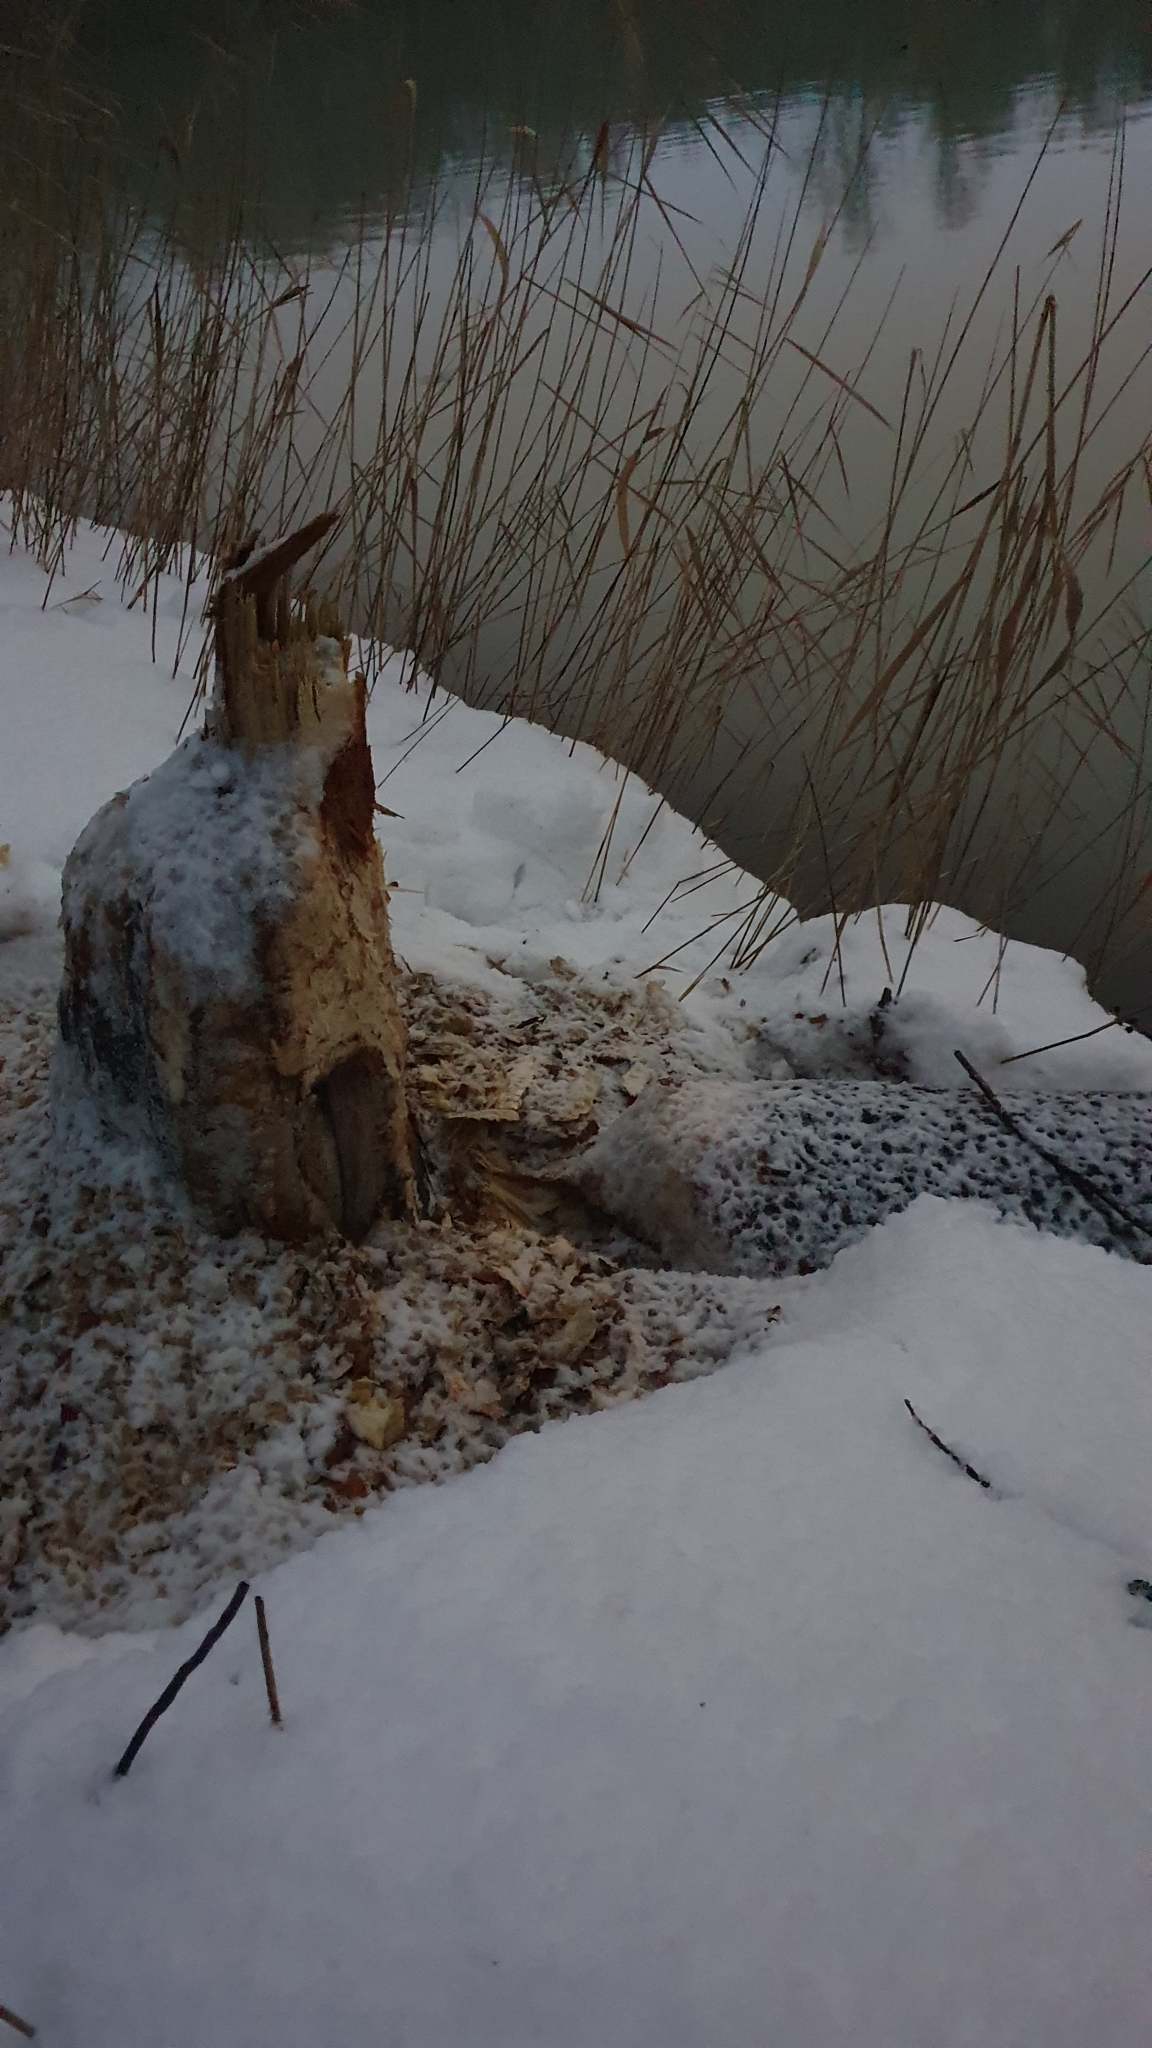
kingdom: Animalia
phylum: Chordata
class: Mammalia
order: Rodentia
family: Castoridae
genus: Castor
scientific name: Castor fiber
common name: Eurasian beaver
